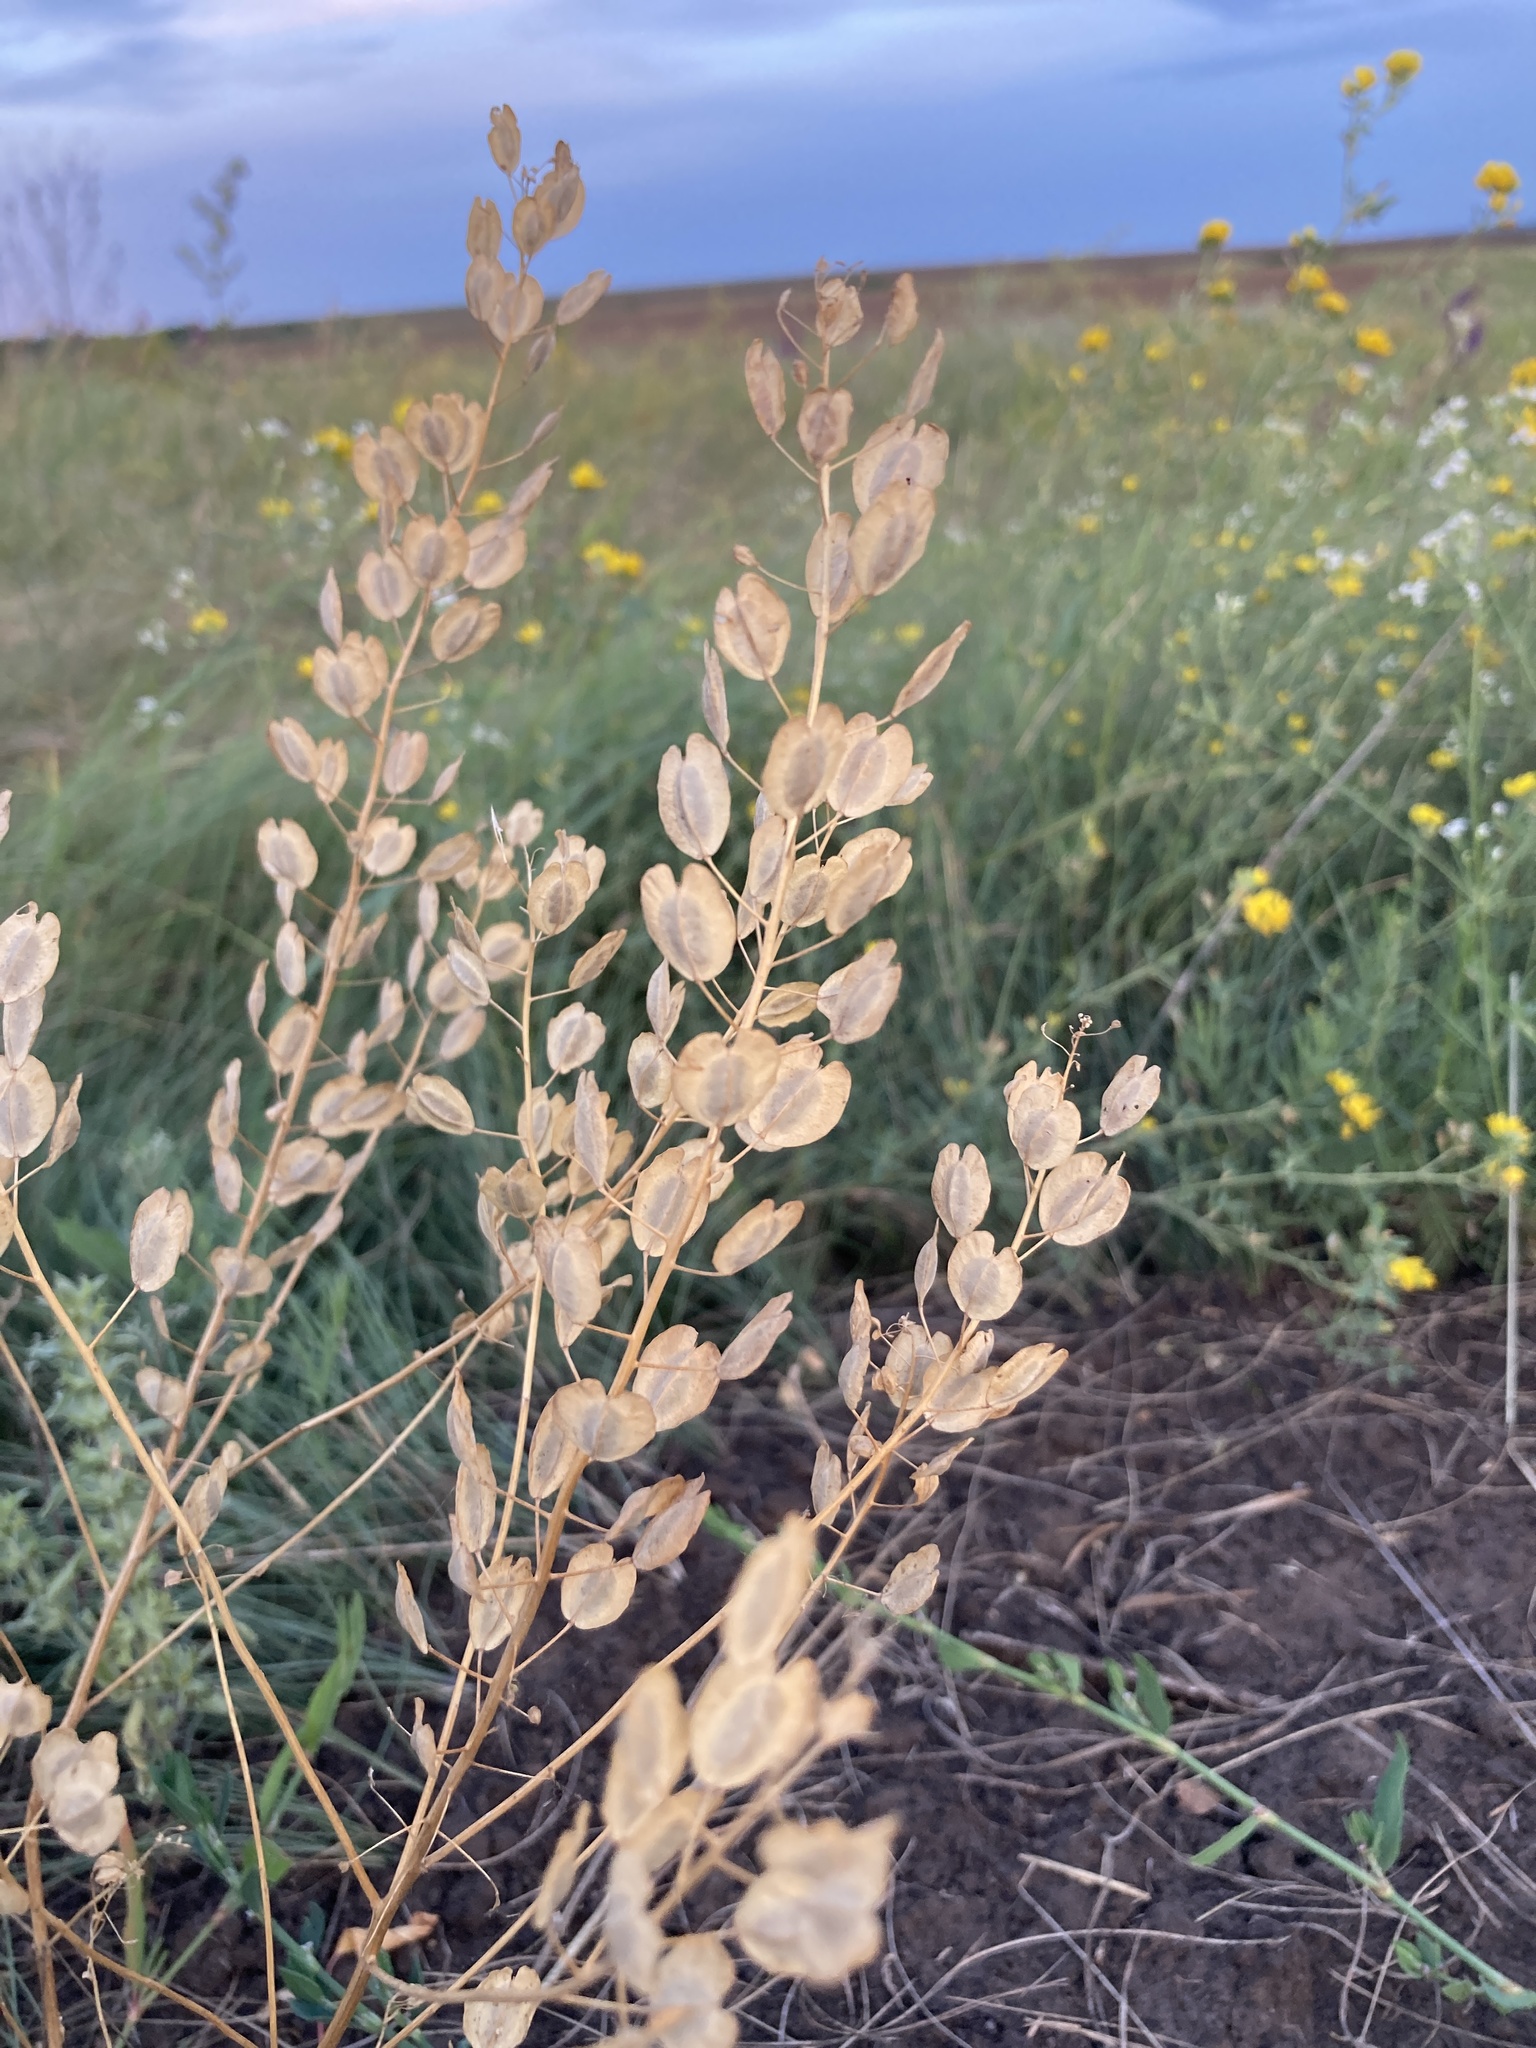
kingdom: Plantae
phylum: Tracheophyta
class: Magnoliopsida
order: Brassicales
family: Brassicaceae
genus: Thlaspi
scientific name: Thlaspi arvense
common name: Field pennycress
